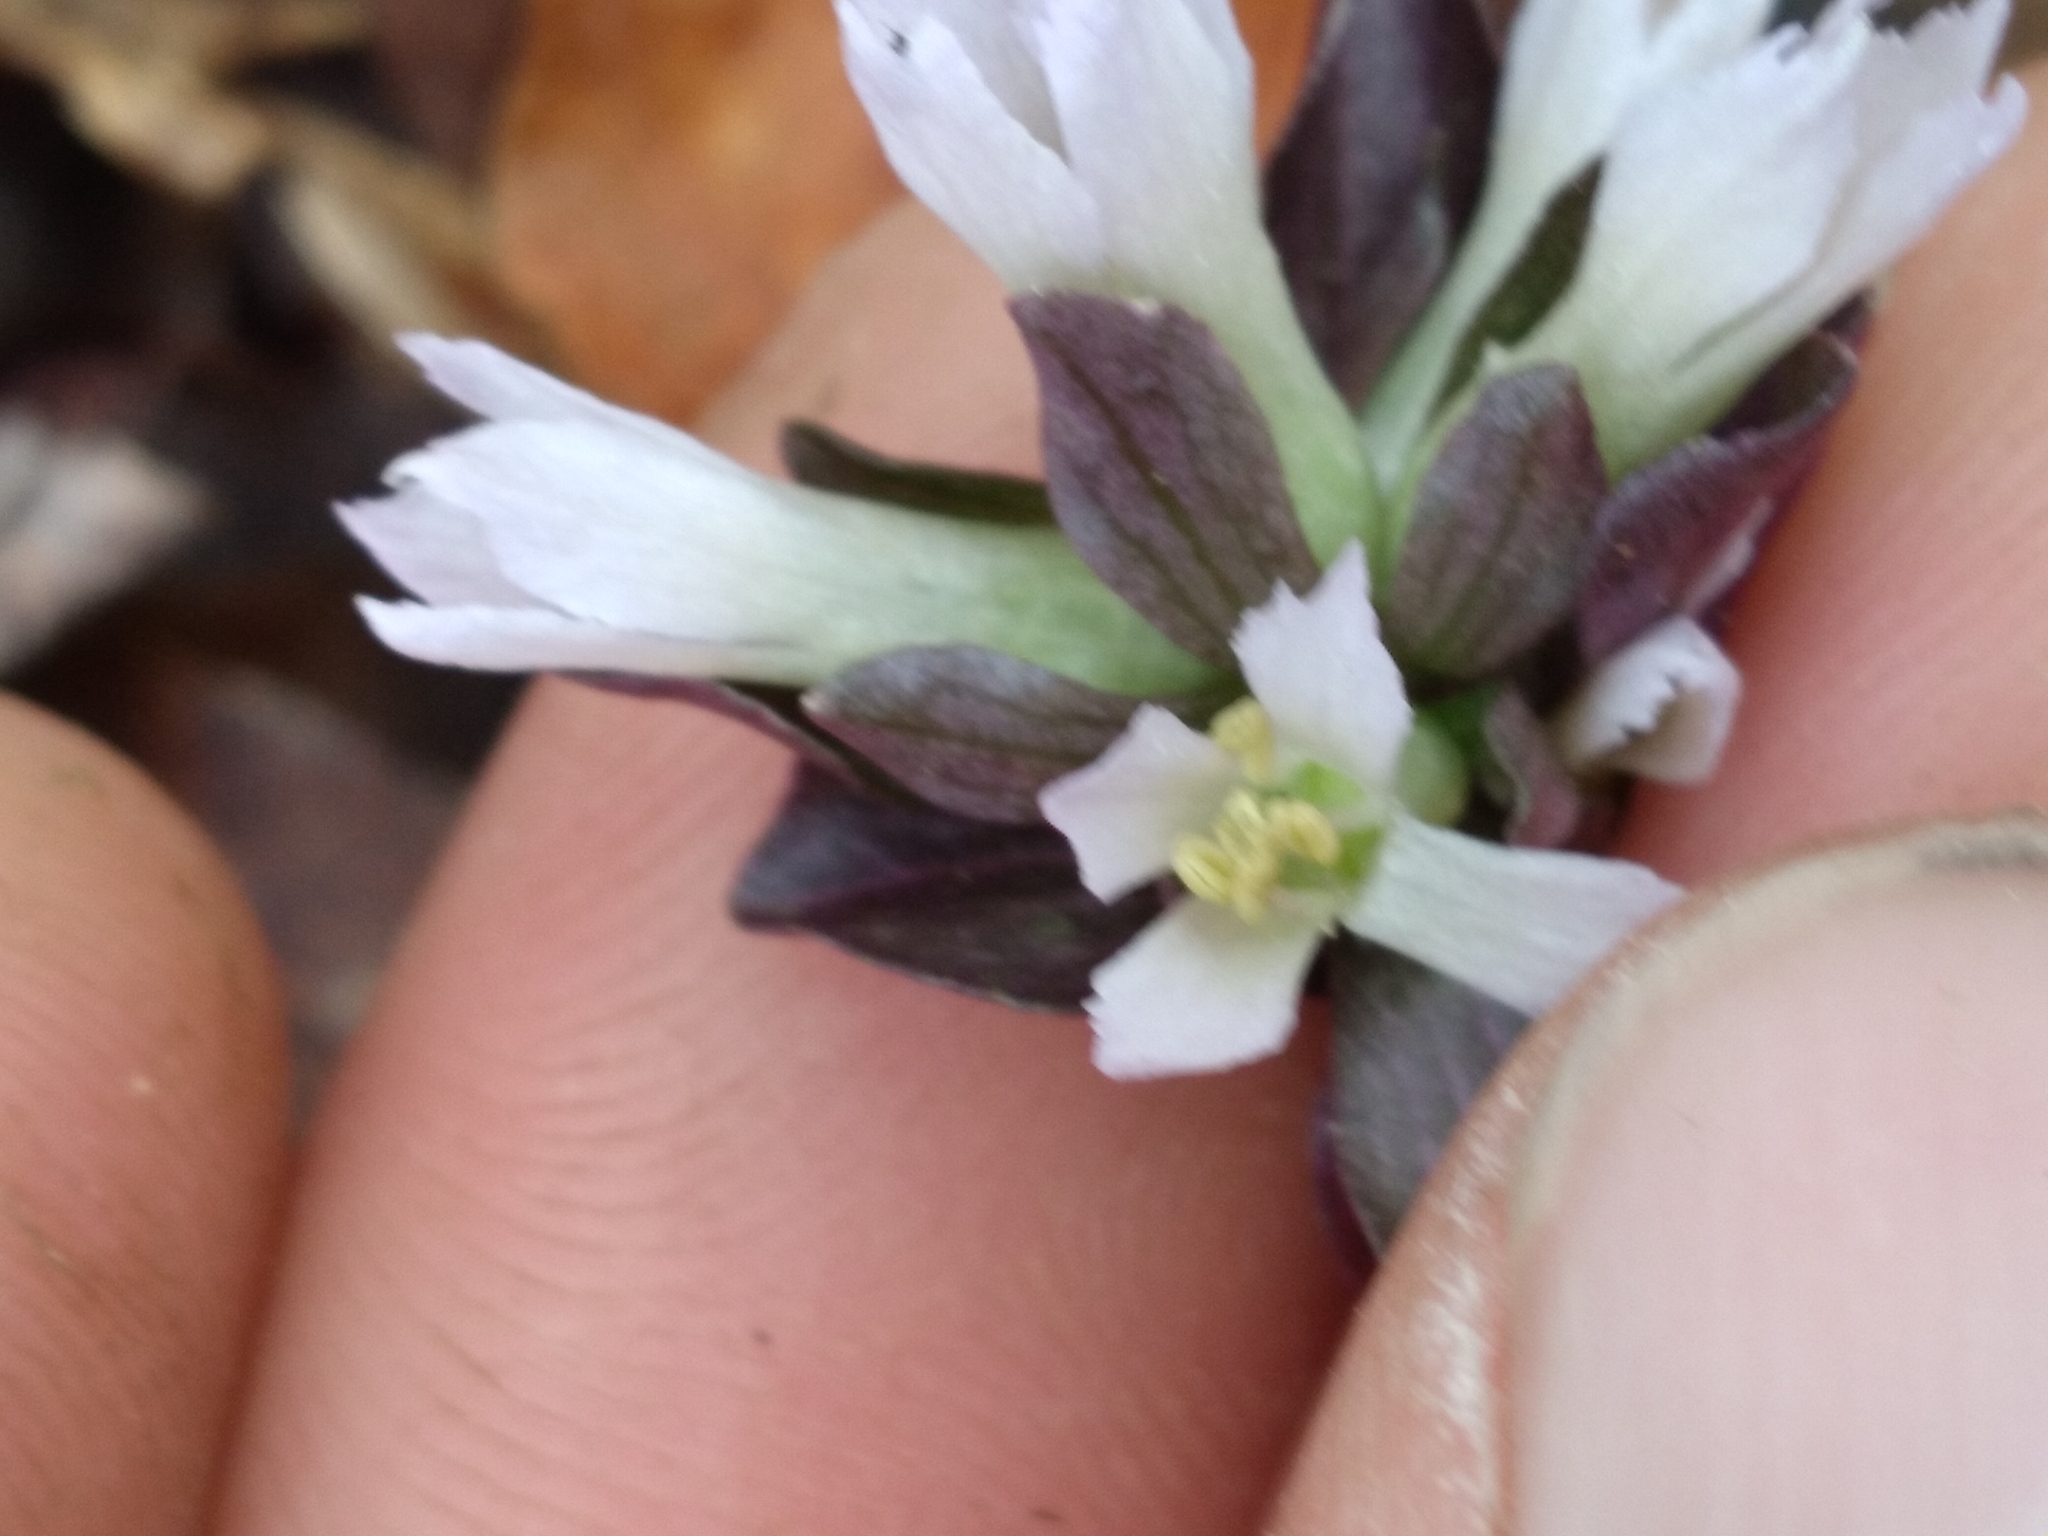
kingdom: Plantae
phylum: Tracheophyta
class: Magnoliopsida
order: Gentianales
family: Gentianaceae
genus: Obolaria
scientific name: Obolaria virginica
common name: Pennywort
